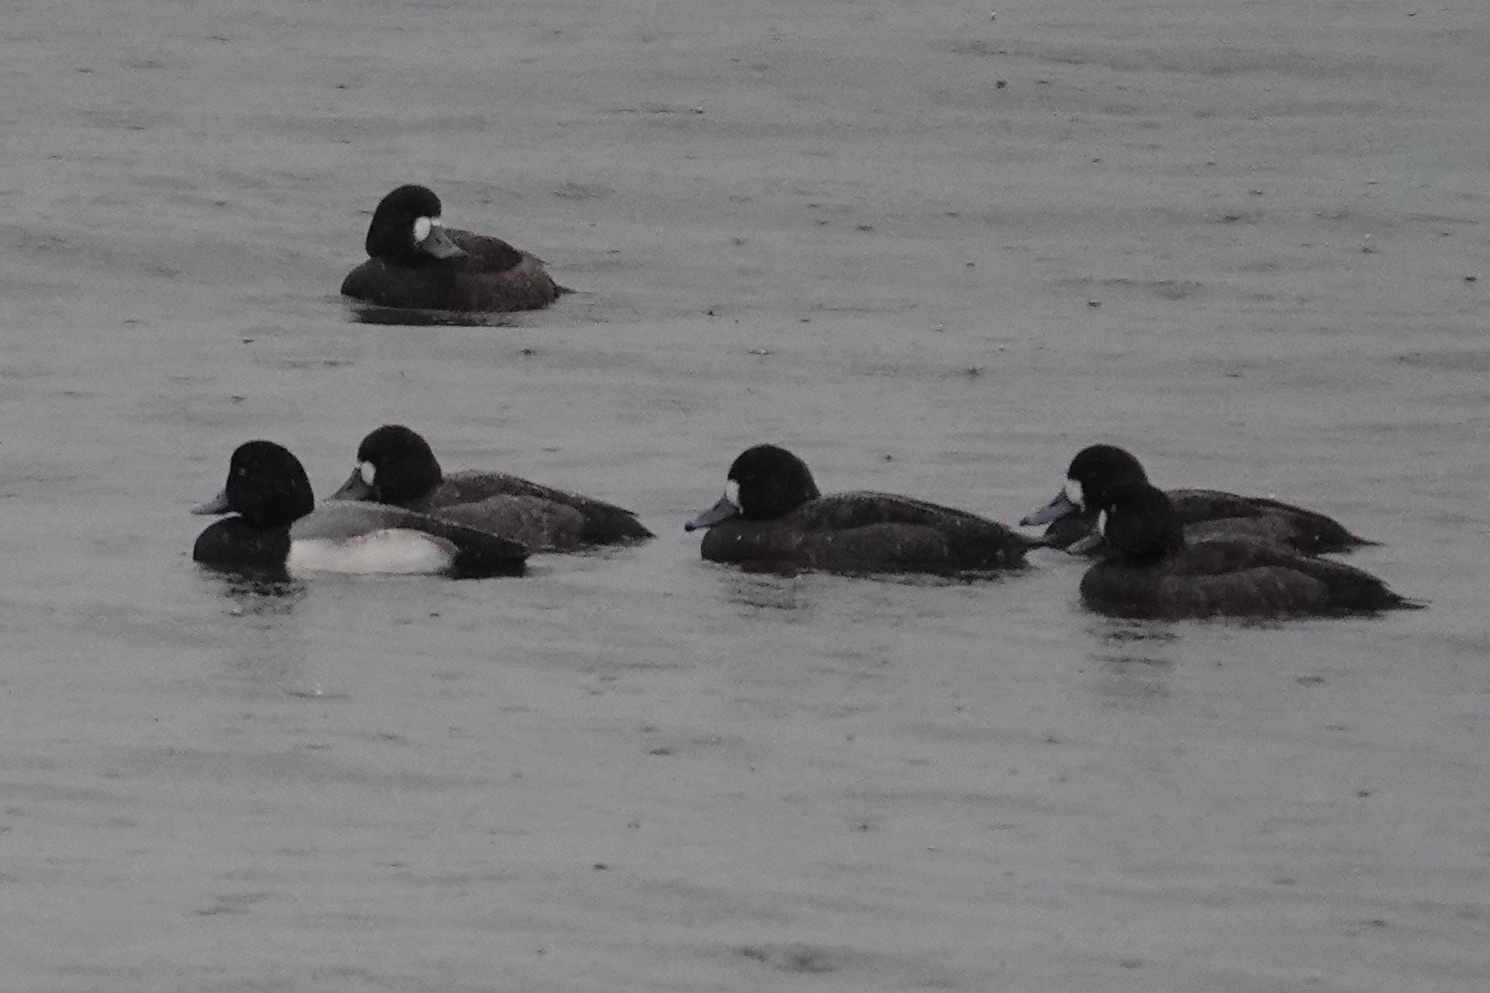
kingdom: Animalia
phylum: Chordata
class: Aves
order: Anseriformes
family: Anatidae
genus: Aythya
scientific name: Aythya marila
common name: Greater scaup
